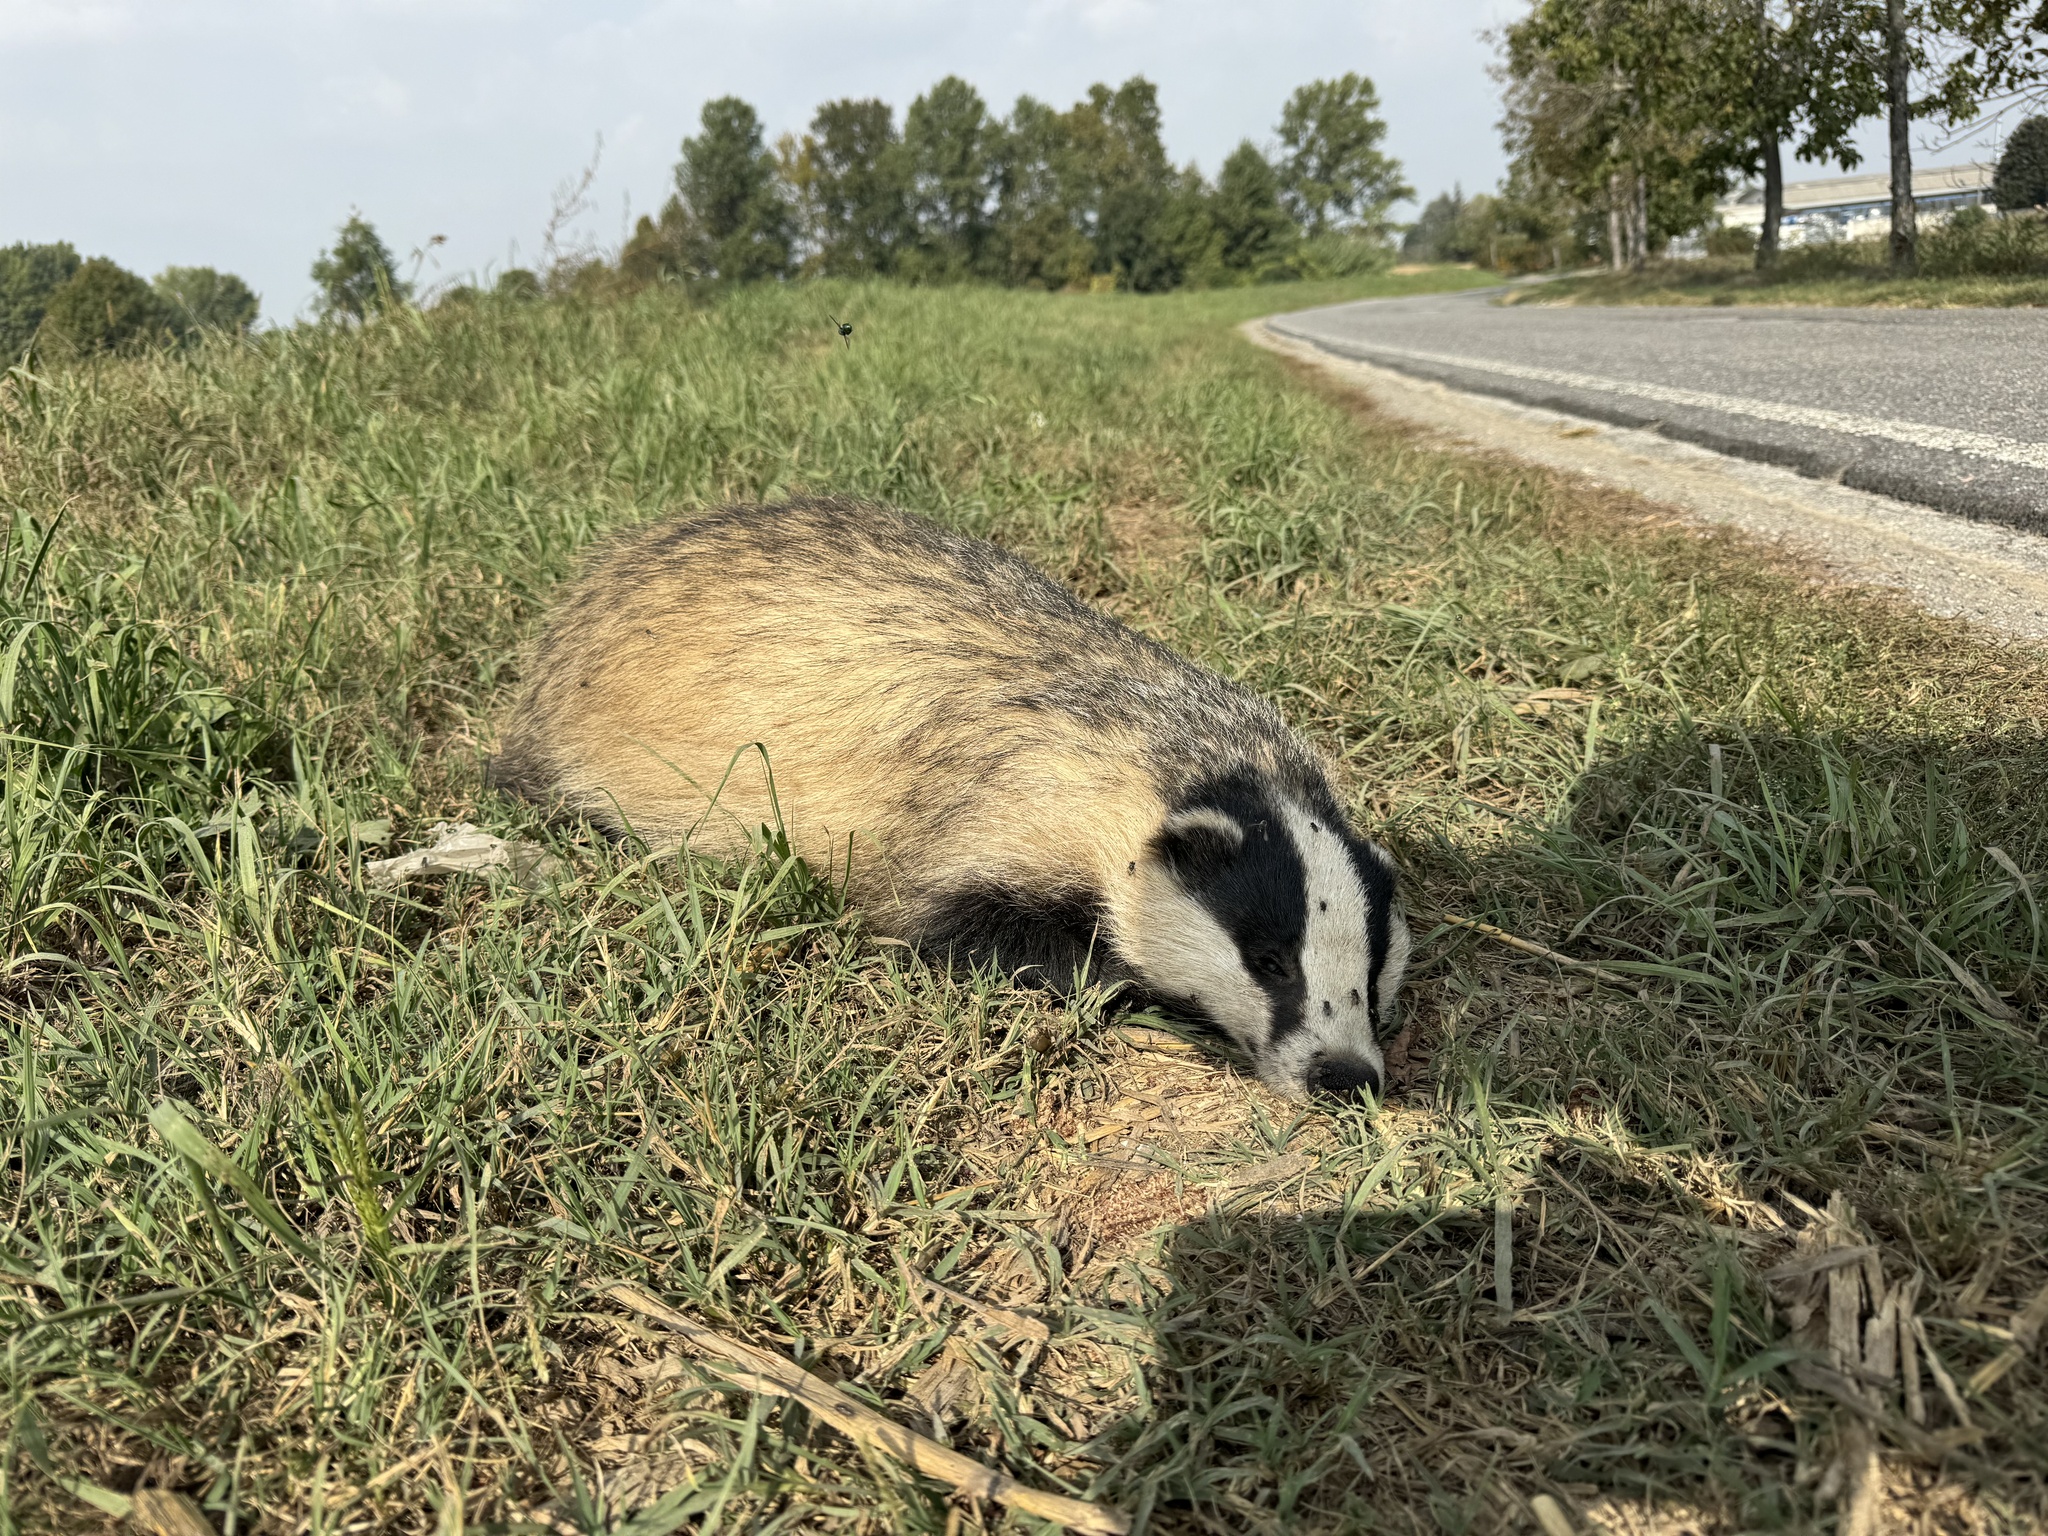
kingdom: Animalia
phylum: Chordata
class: Mammalia
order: Carnivora
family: Mustelidae
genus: Meles
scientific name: Meles meles
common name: Eurasian badger
